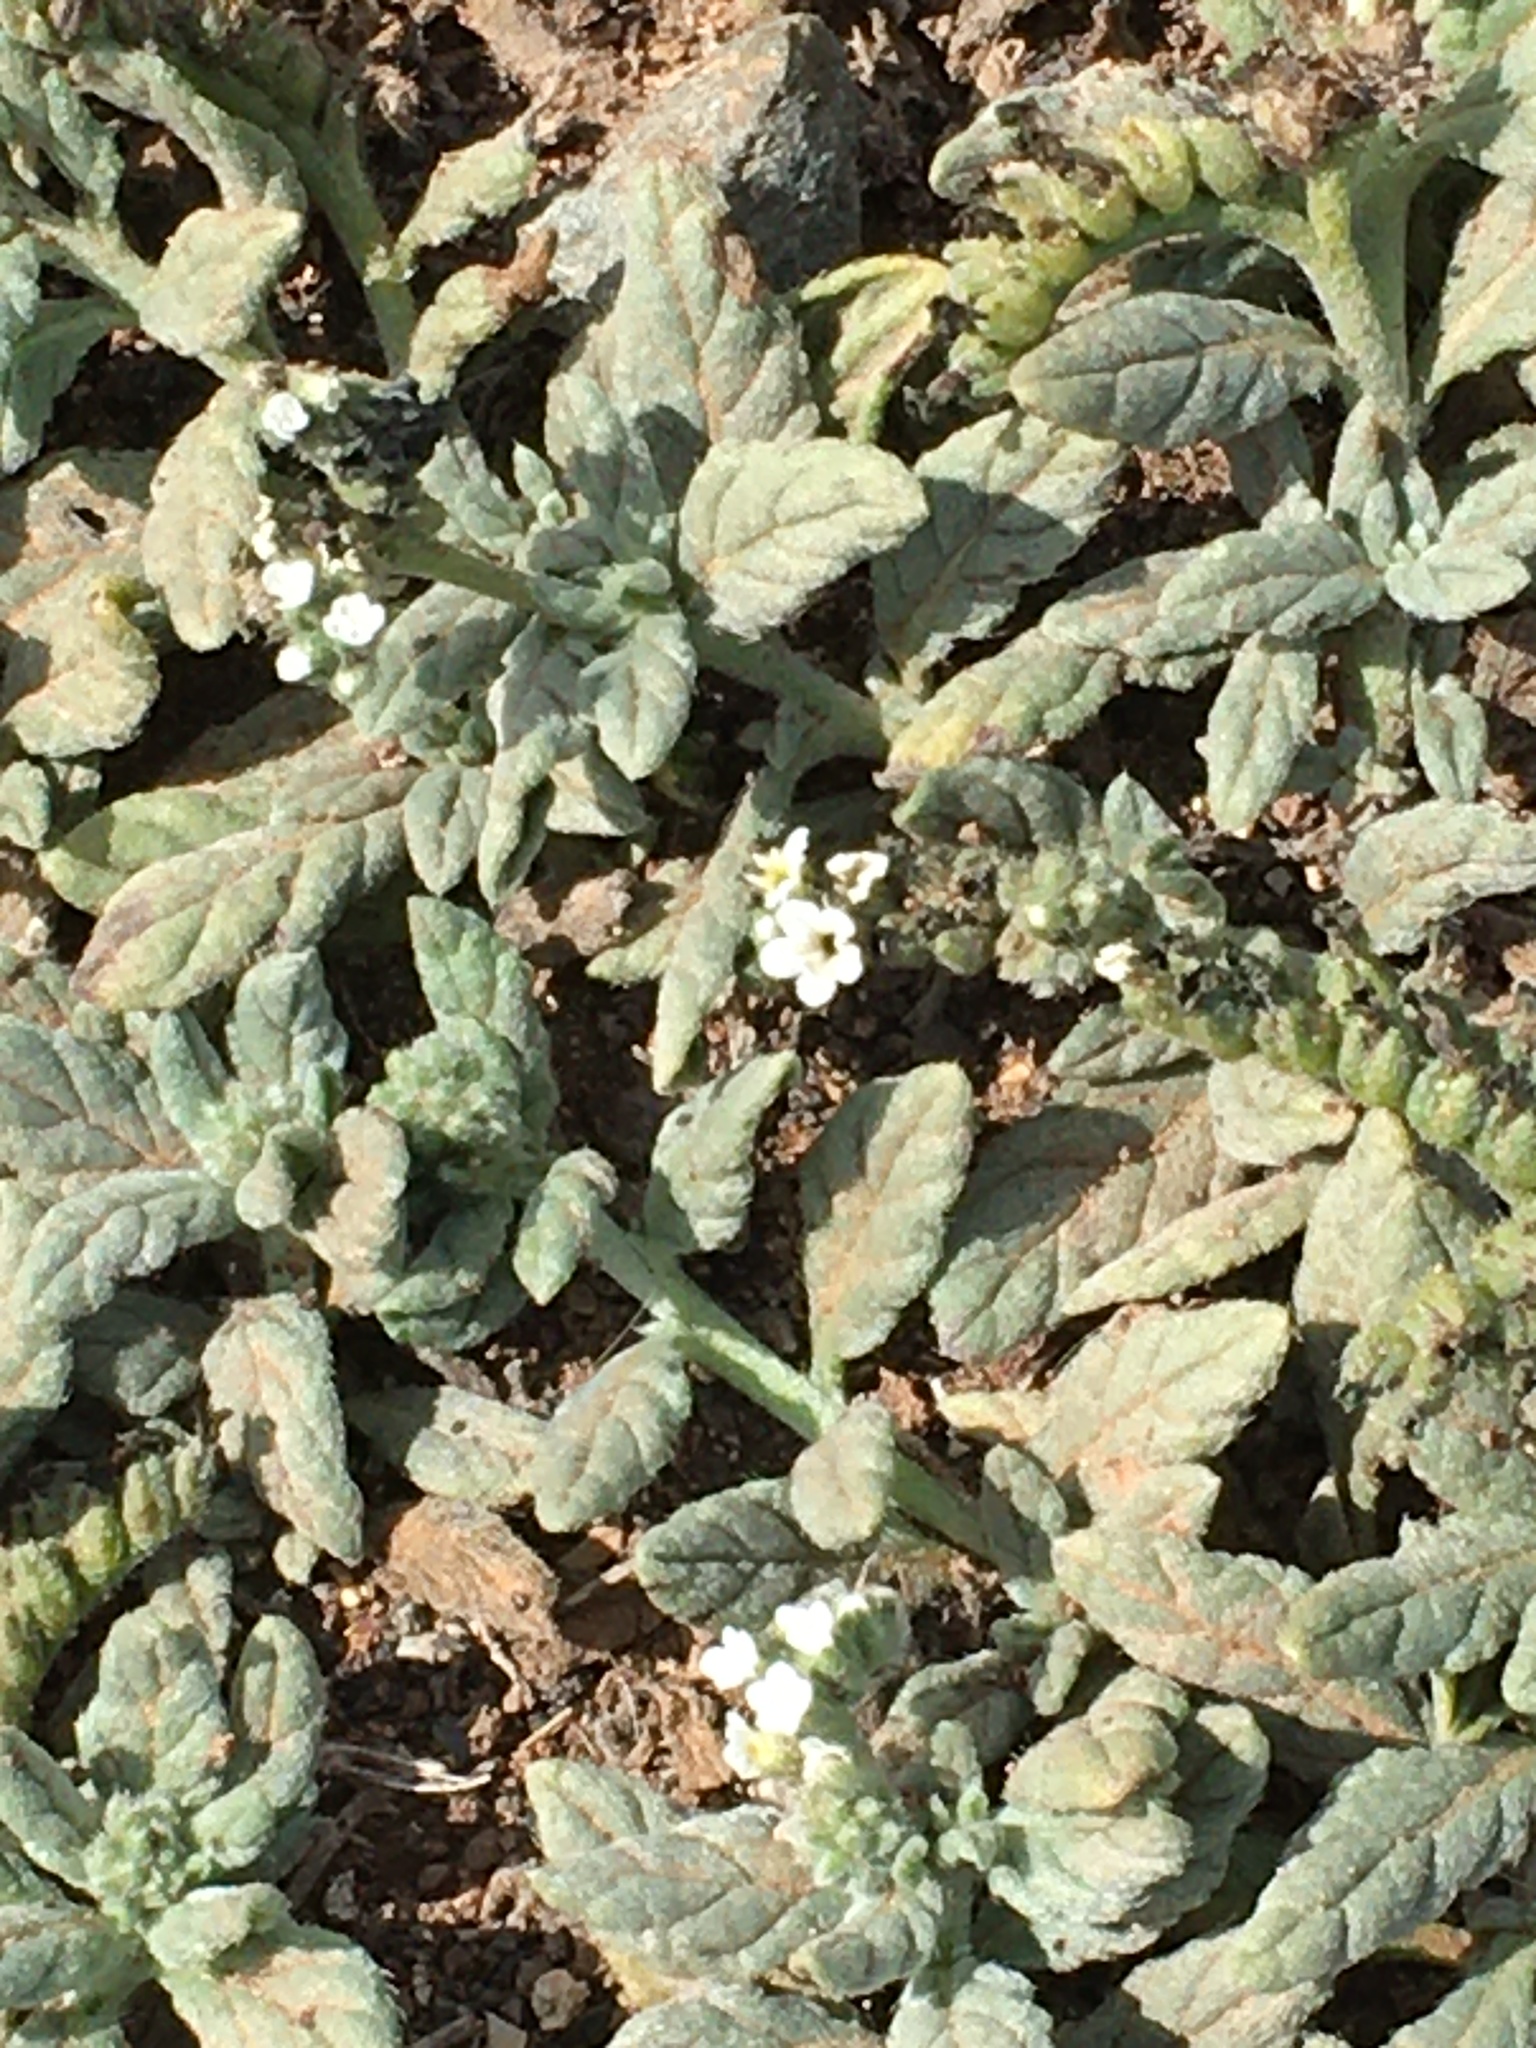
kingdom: Plantae
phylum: Tracheophyta
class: Magnoliopsida
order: Boraginales
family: Heliotropiaceae
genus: Heliotropium
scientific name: Heliotropium ramosissimum
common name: Wavy heliotrope
